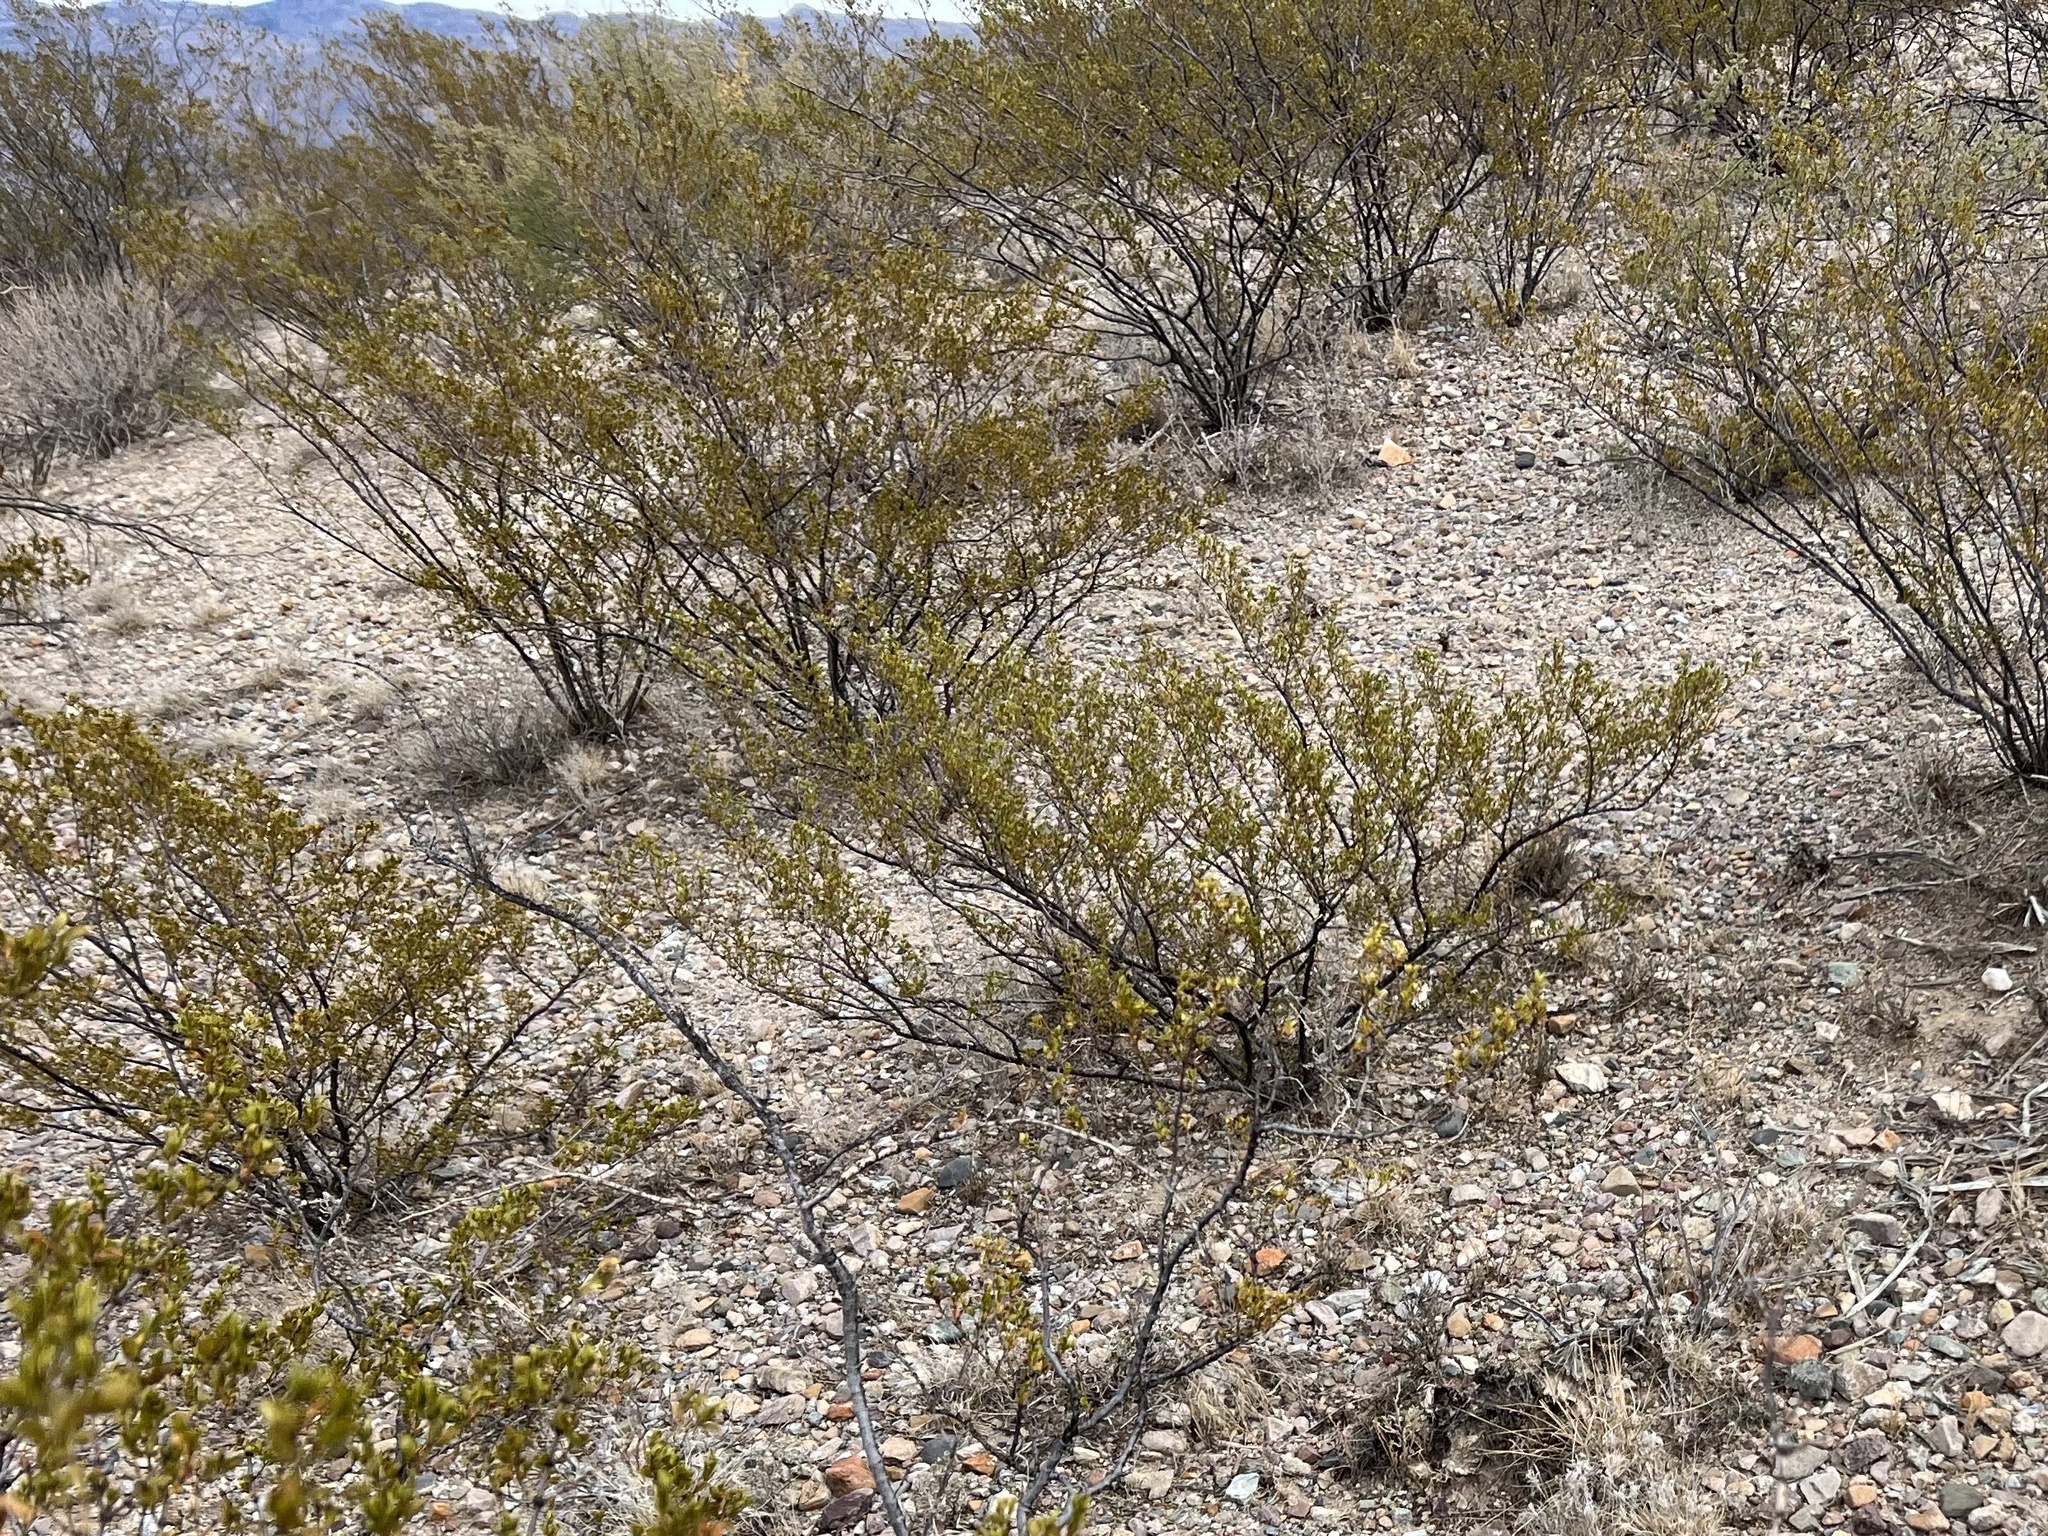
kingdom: Plantae
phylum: Tracheophyta
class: Magnoliopsida
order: Zygophyllales
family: Zygophyllaceae
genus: Larrea
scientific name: Larrea tridentata
